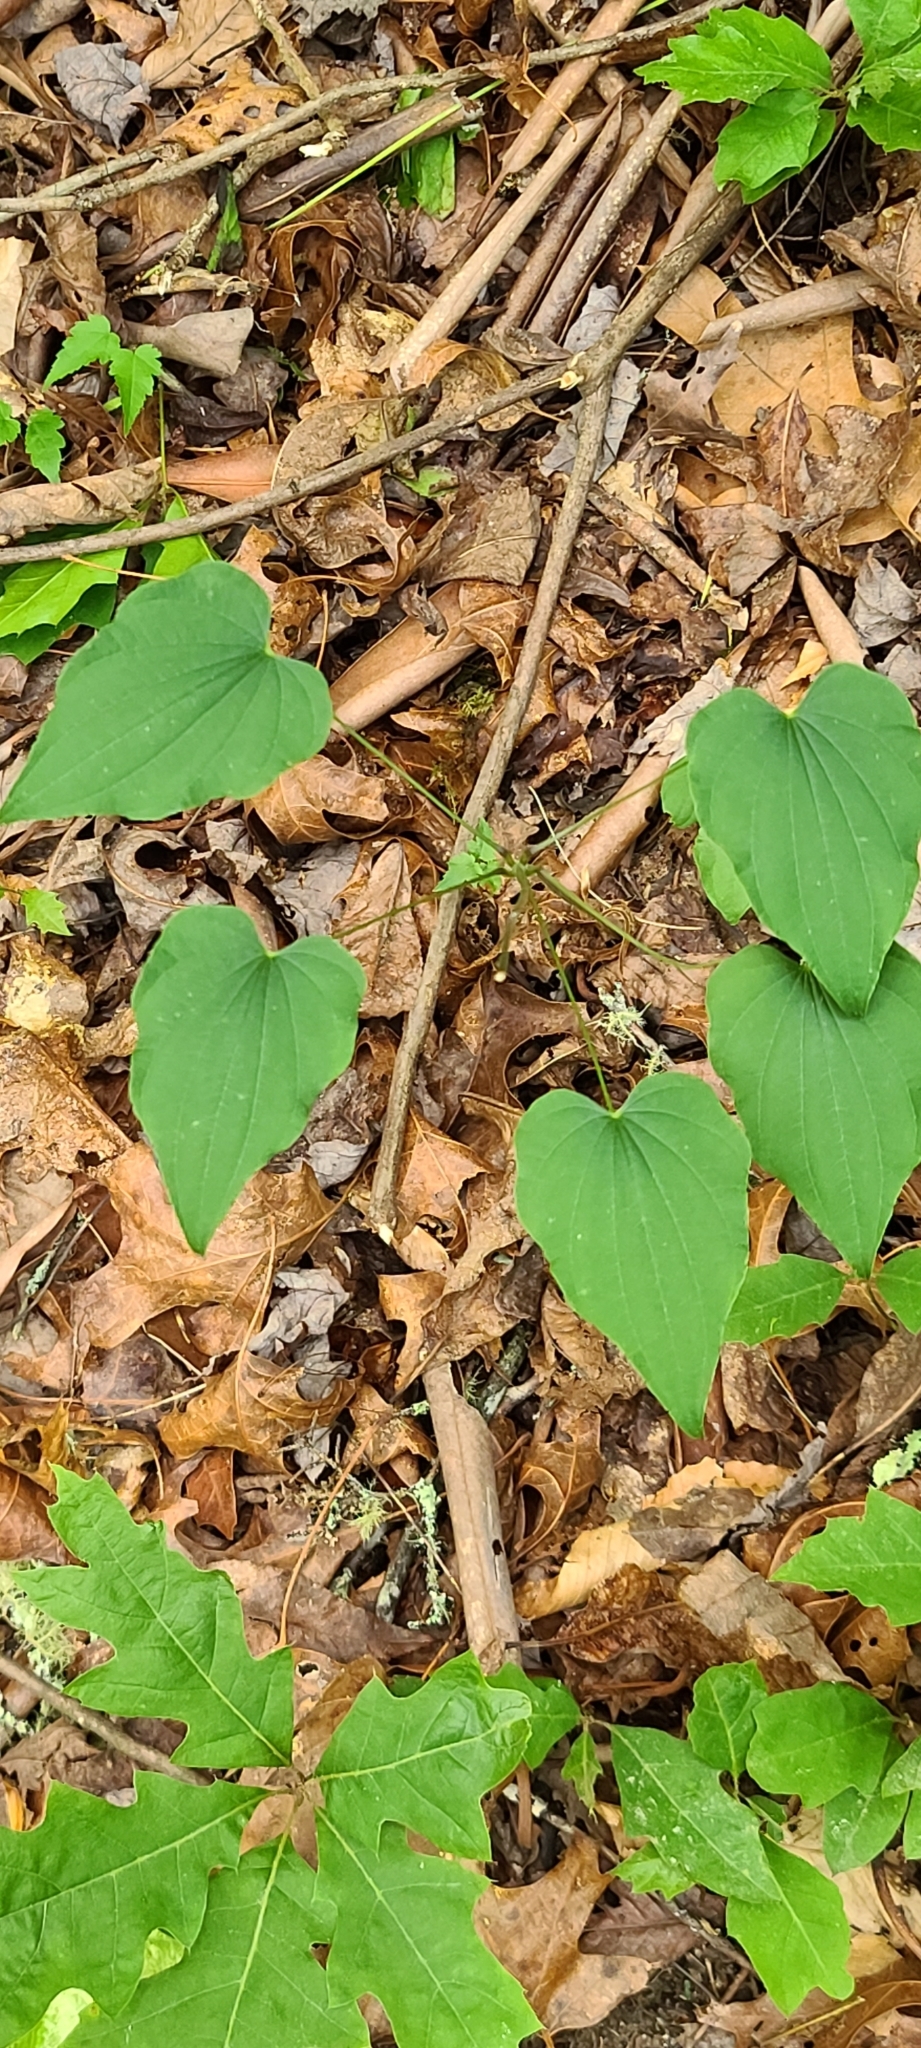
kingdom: Plantae
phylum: Tracheophyta
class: Liliopsida
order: Dioscoreales
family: Dioscoreaceae
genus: Dioscorea
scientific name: Dioscorea villosa
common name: Wild yam
